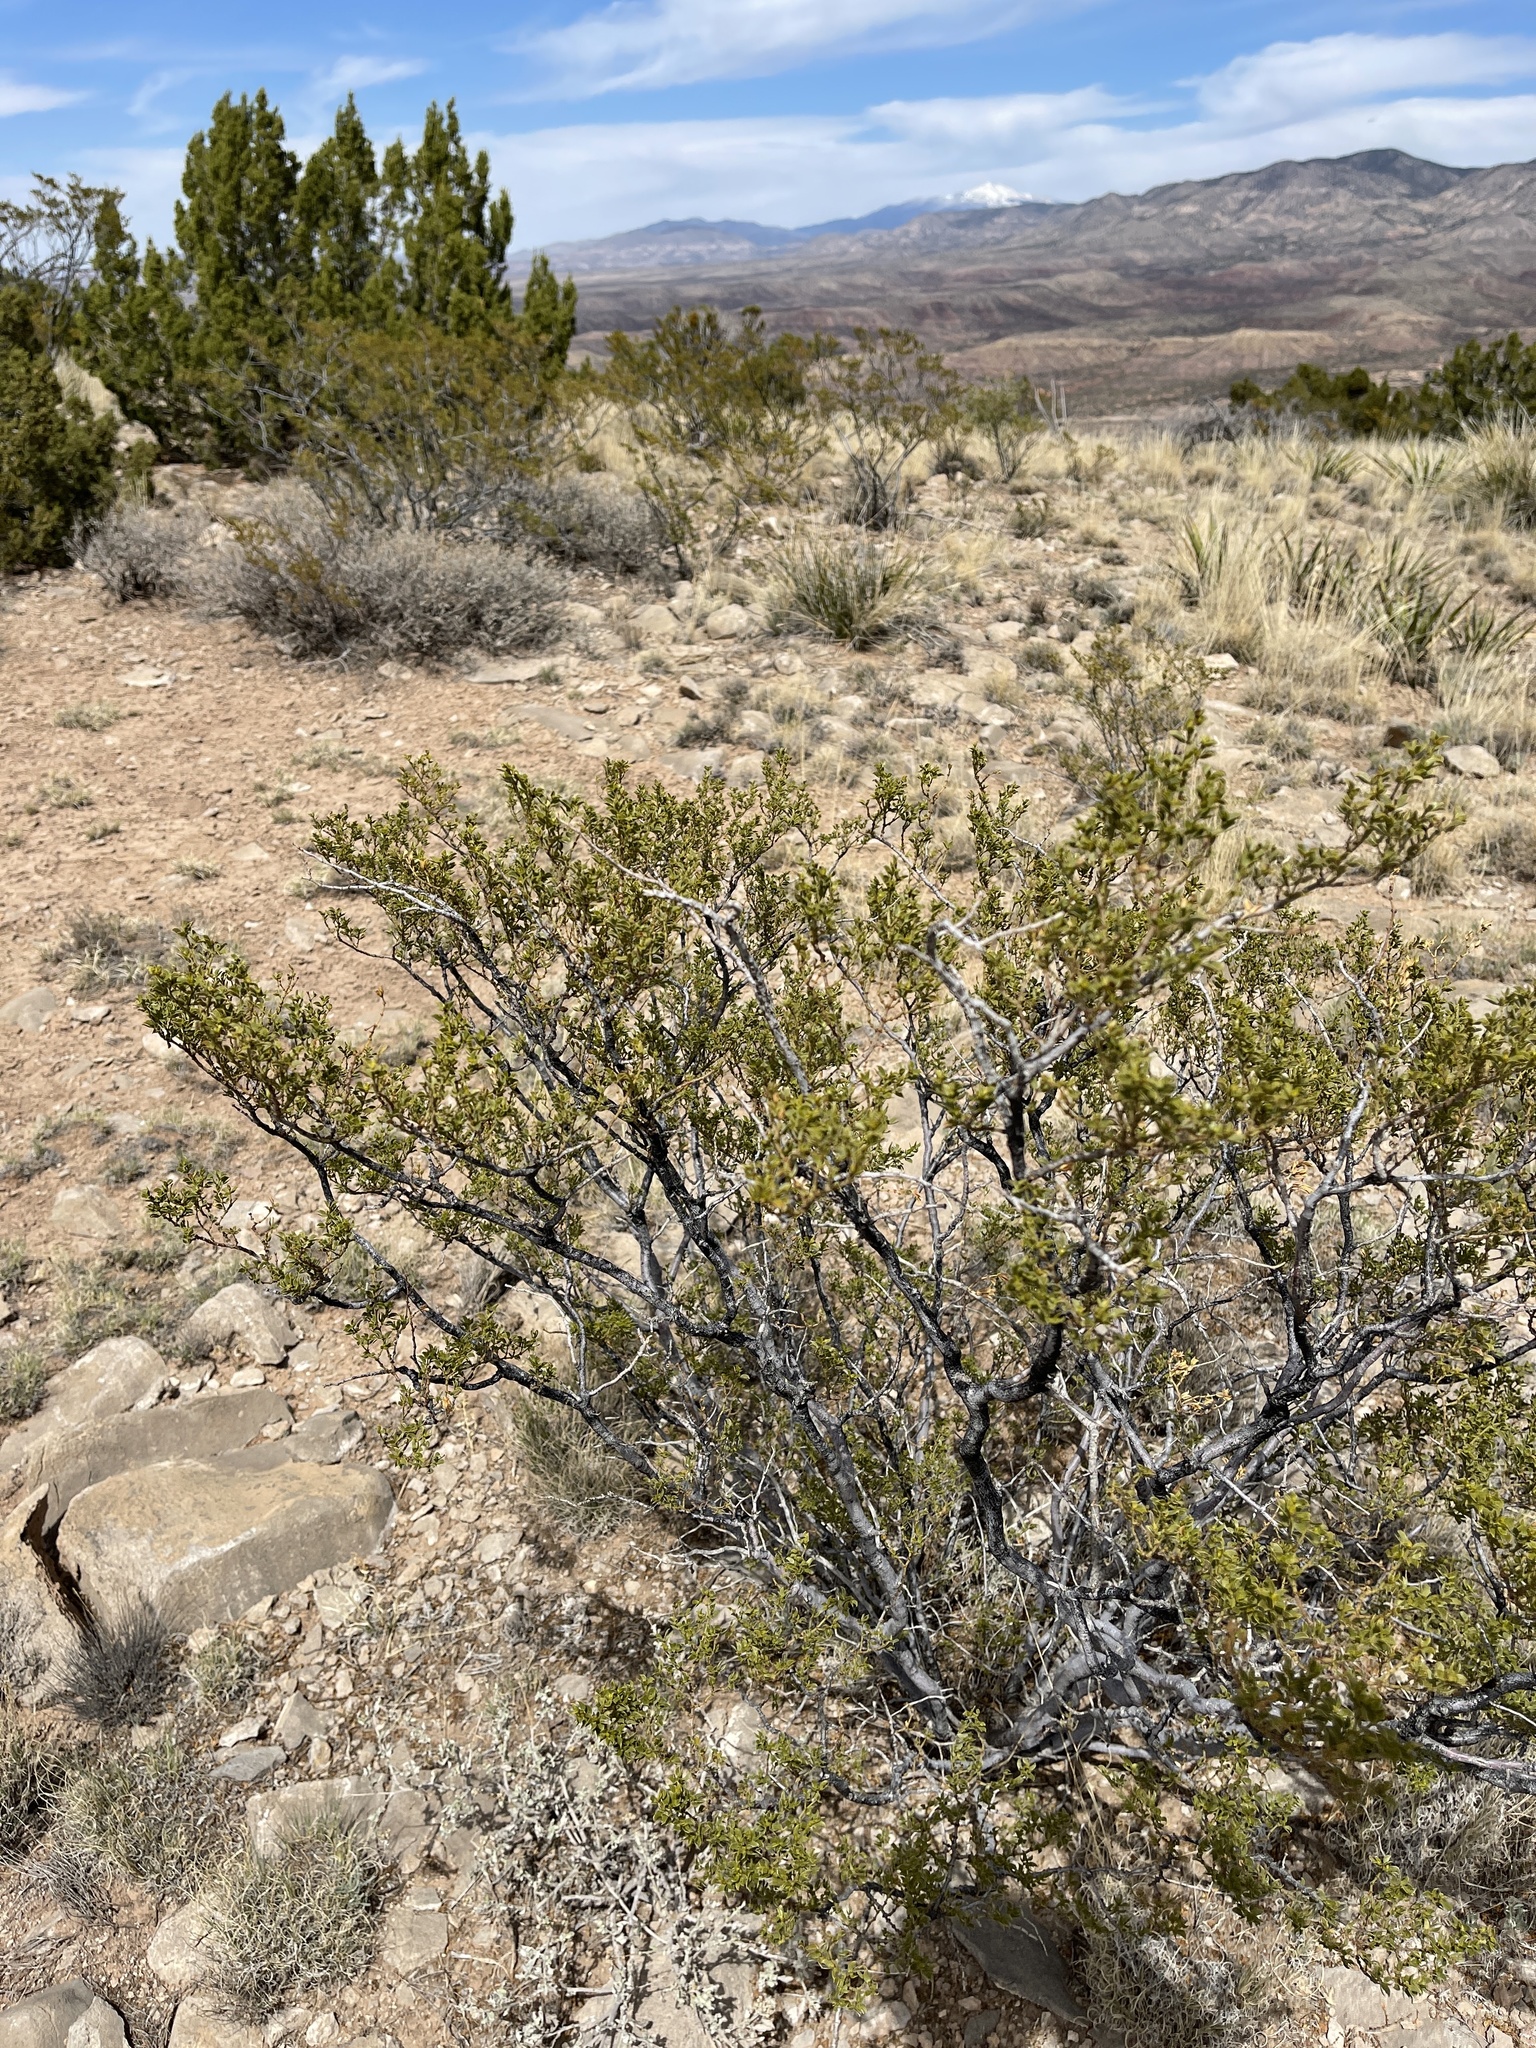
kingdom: Plantae
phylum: Tracheophyta
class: Magnoliopsida
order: Zygophyllales
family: Zygophyllaceae
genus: Larrea
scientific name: Larrea tridentata
